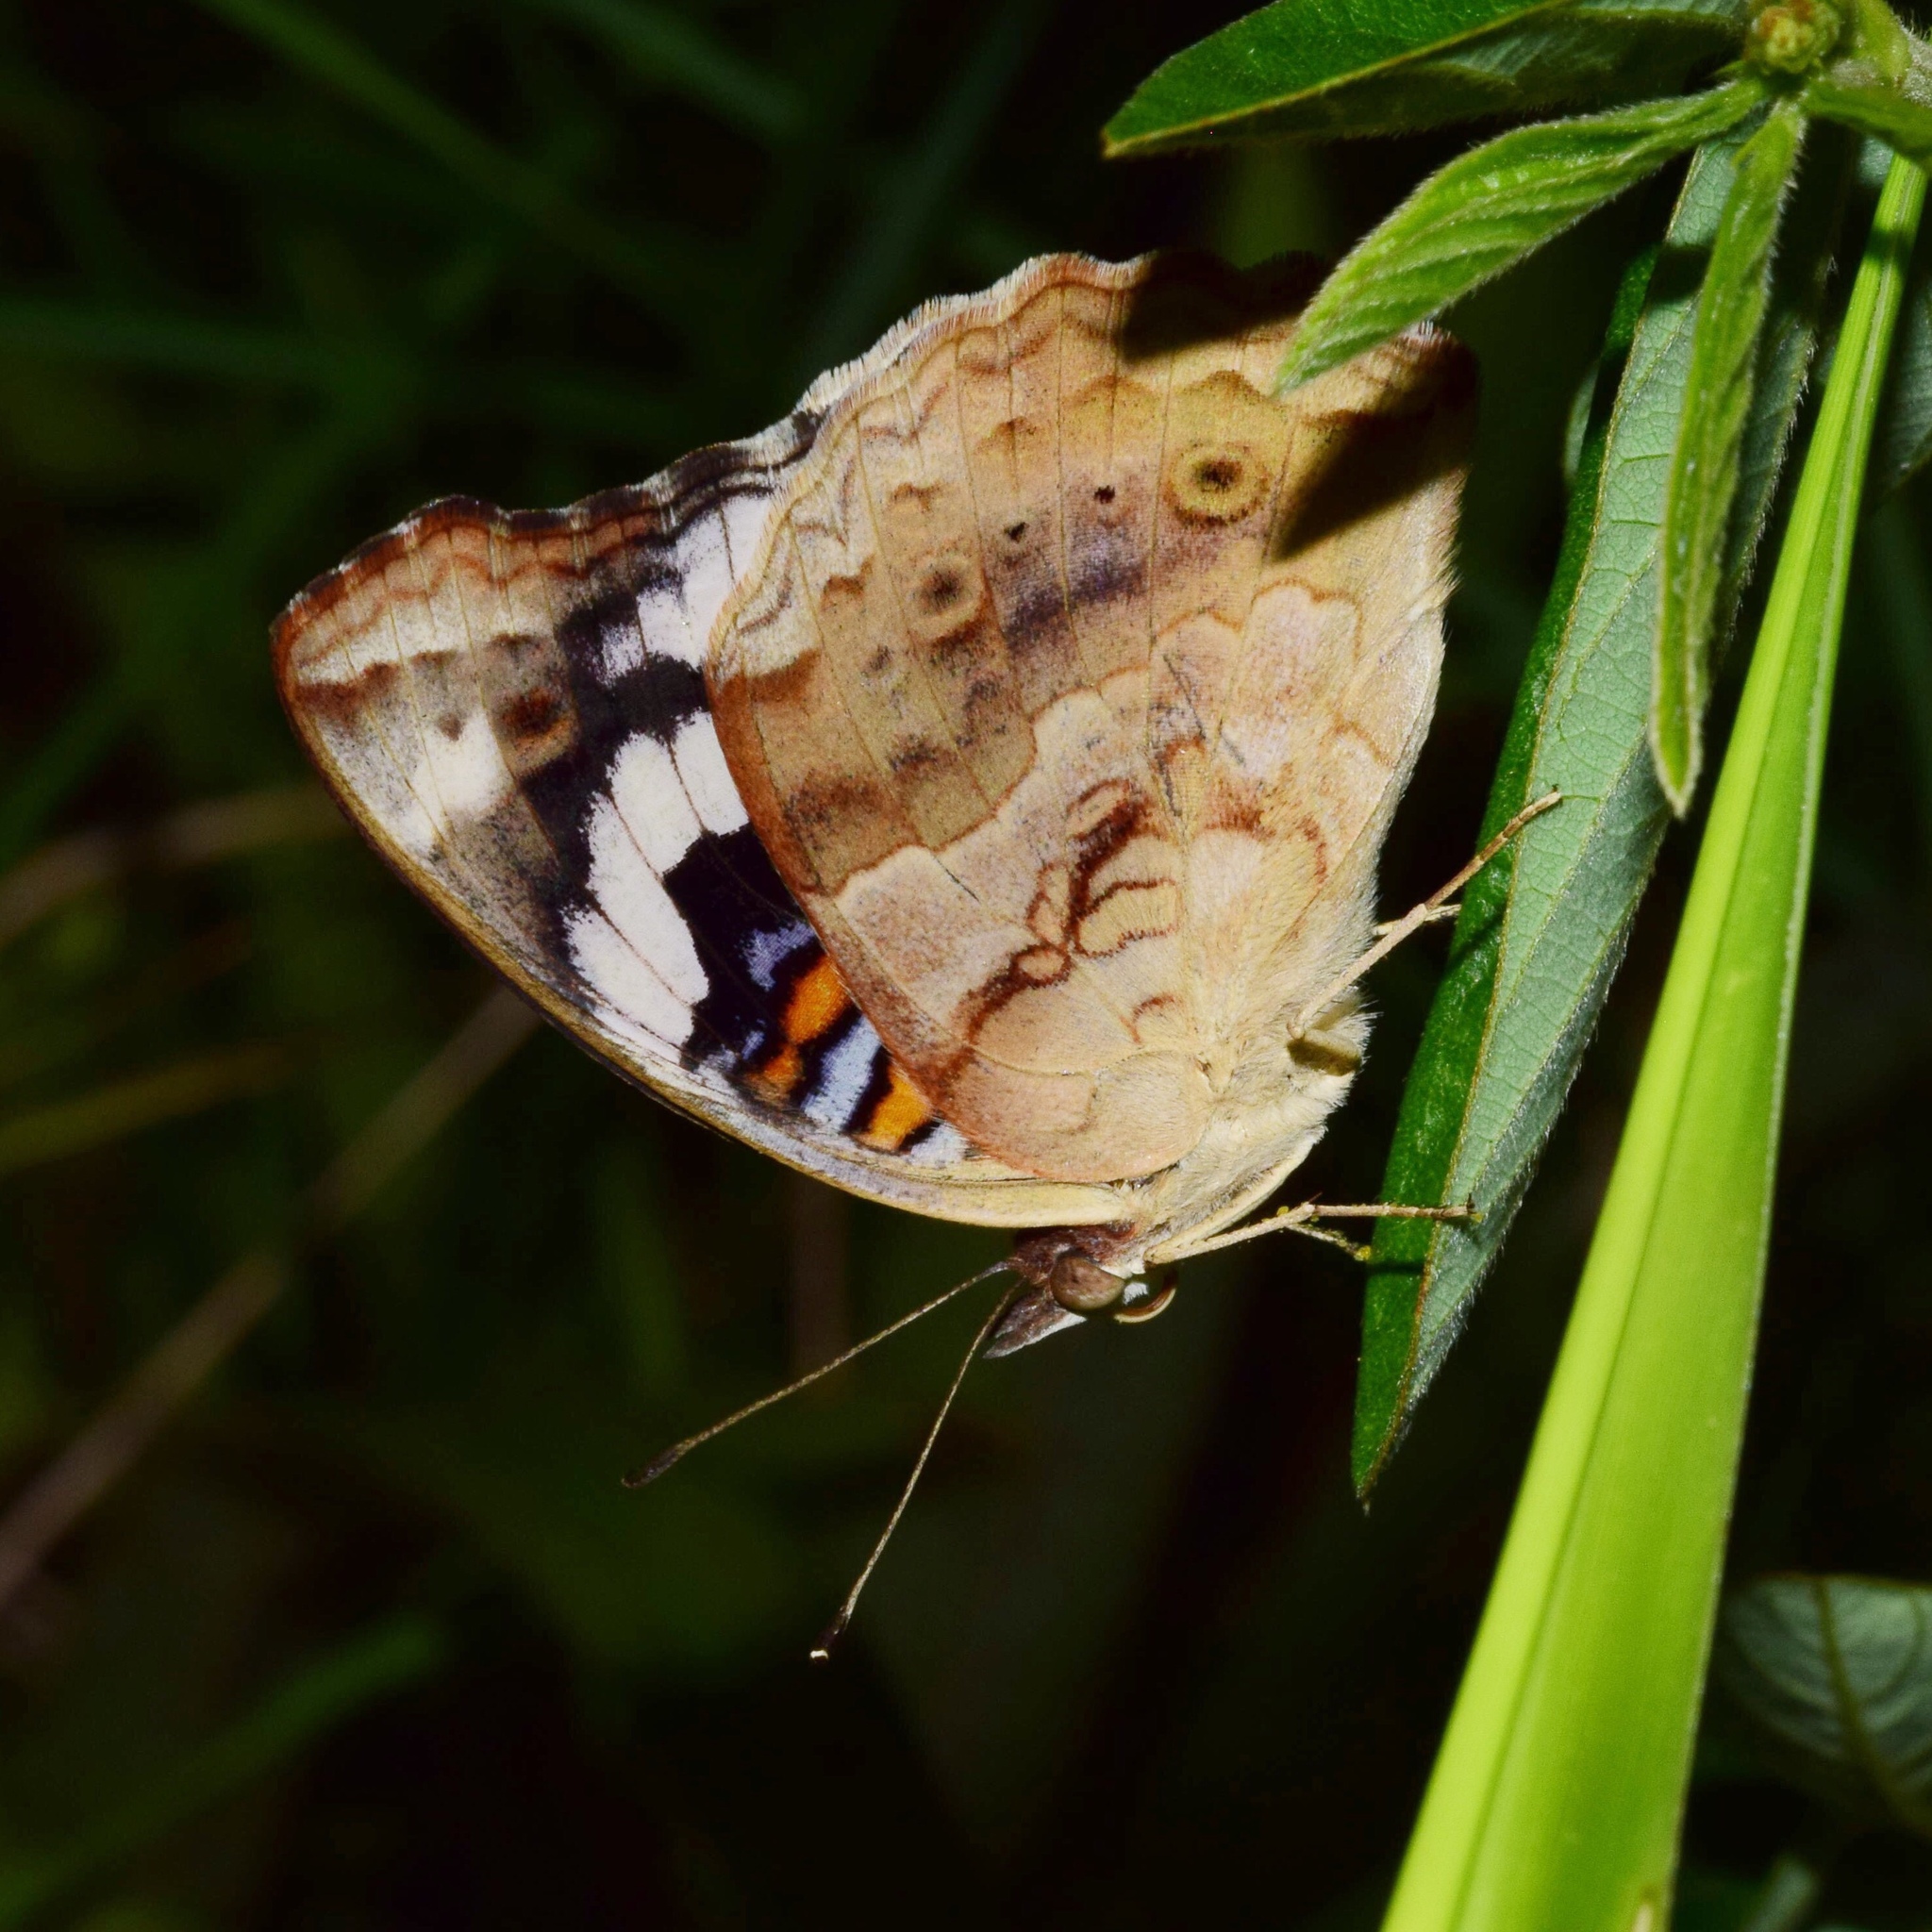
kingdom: Animalia
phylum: Arthropoda
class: Insecta
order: Lepidoptera
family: Nymphalidae
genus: Junonia
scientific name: Junonia oenone
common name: Dark blue pansy
